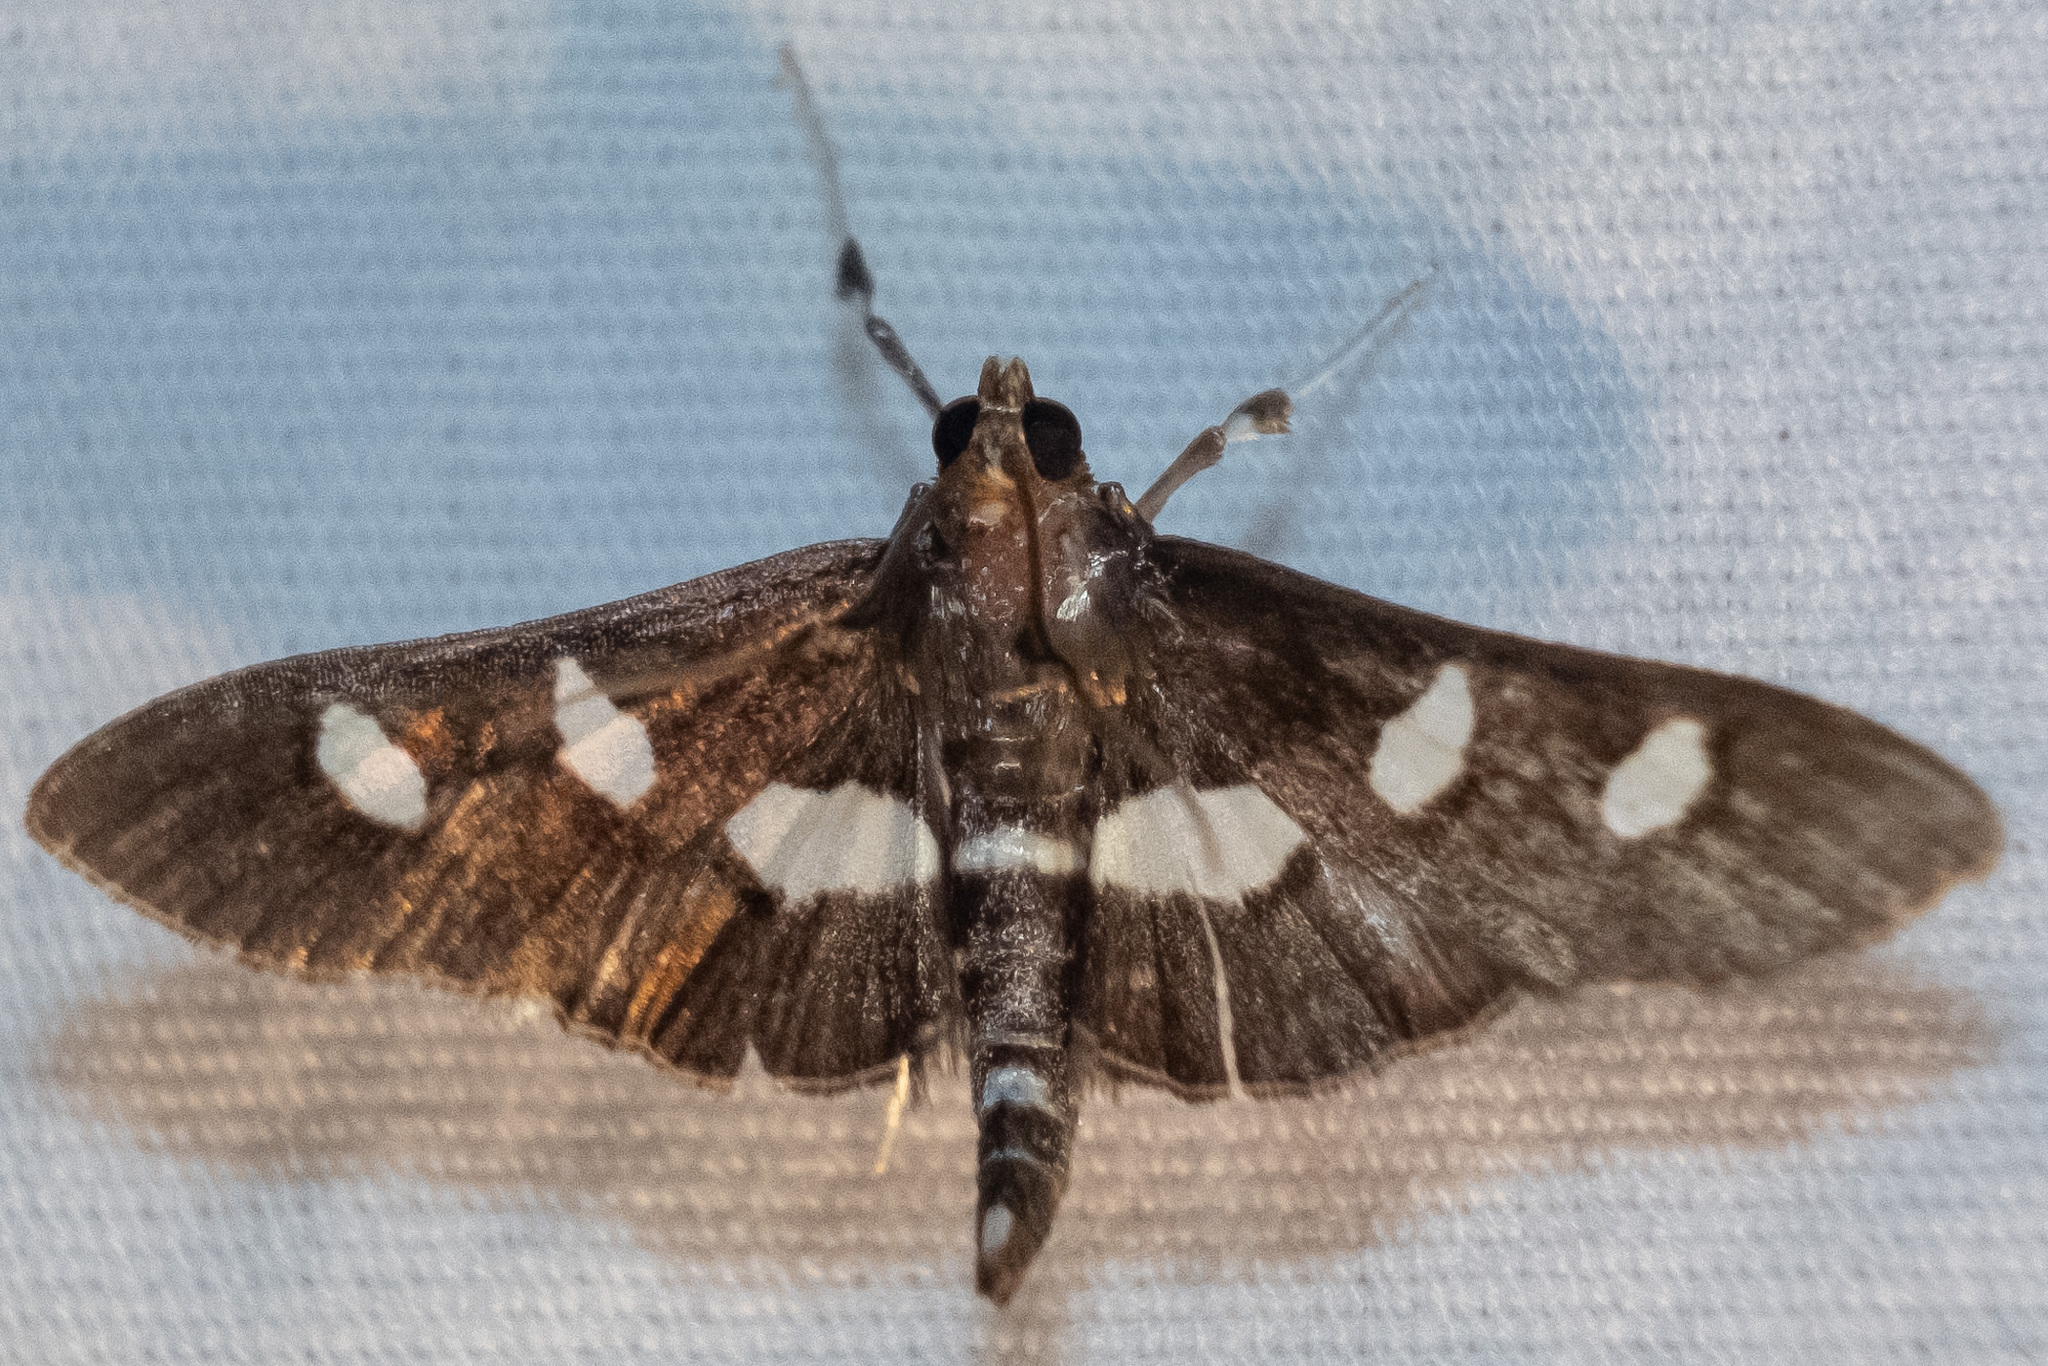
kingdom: Animalia
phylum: Arthropoda
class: Insecta
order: Lepidoptera
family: Crambidae
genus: Desmia
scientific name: Desmia
